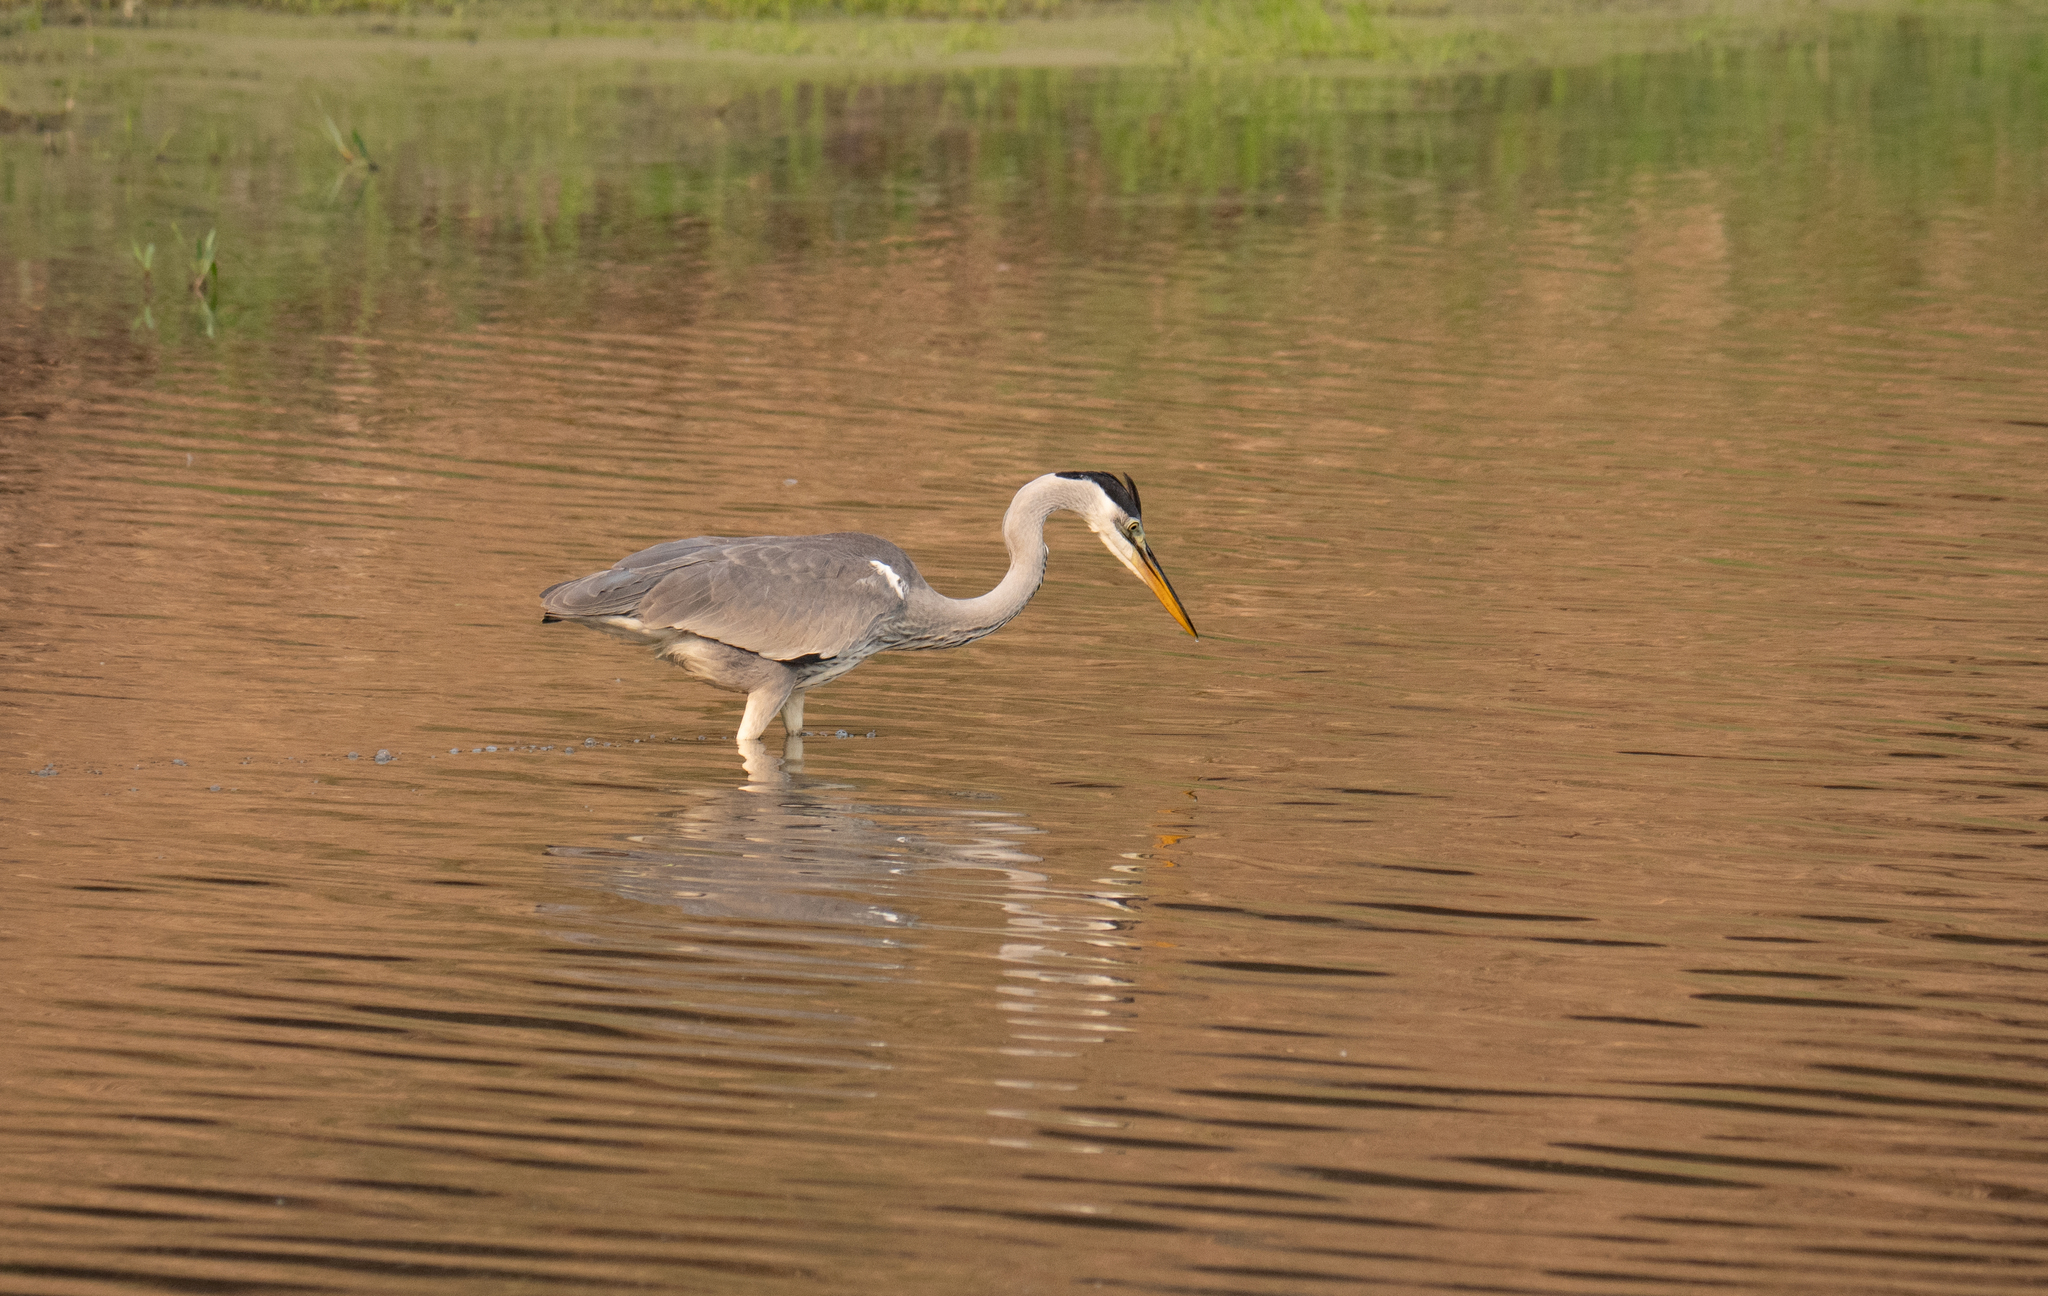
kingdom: Animalia
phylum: Chordata
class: Aves
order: Pelecaniformes
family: Ardeidae
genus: Ardea
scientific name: Ardea cocoi
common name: Cocoi heron
